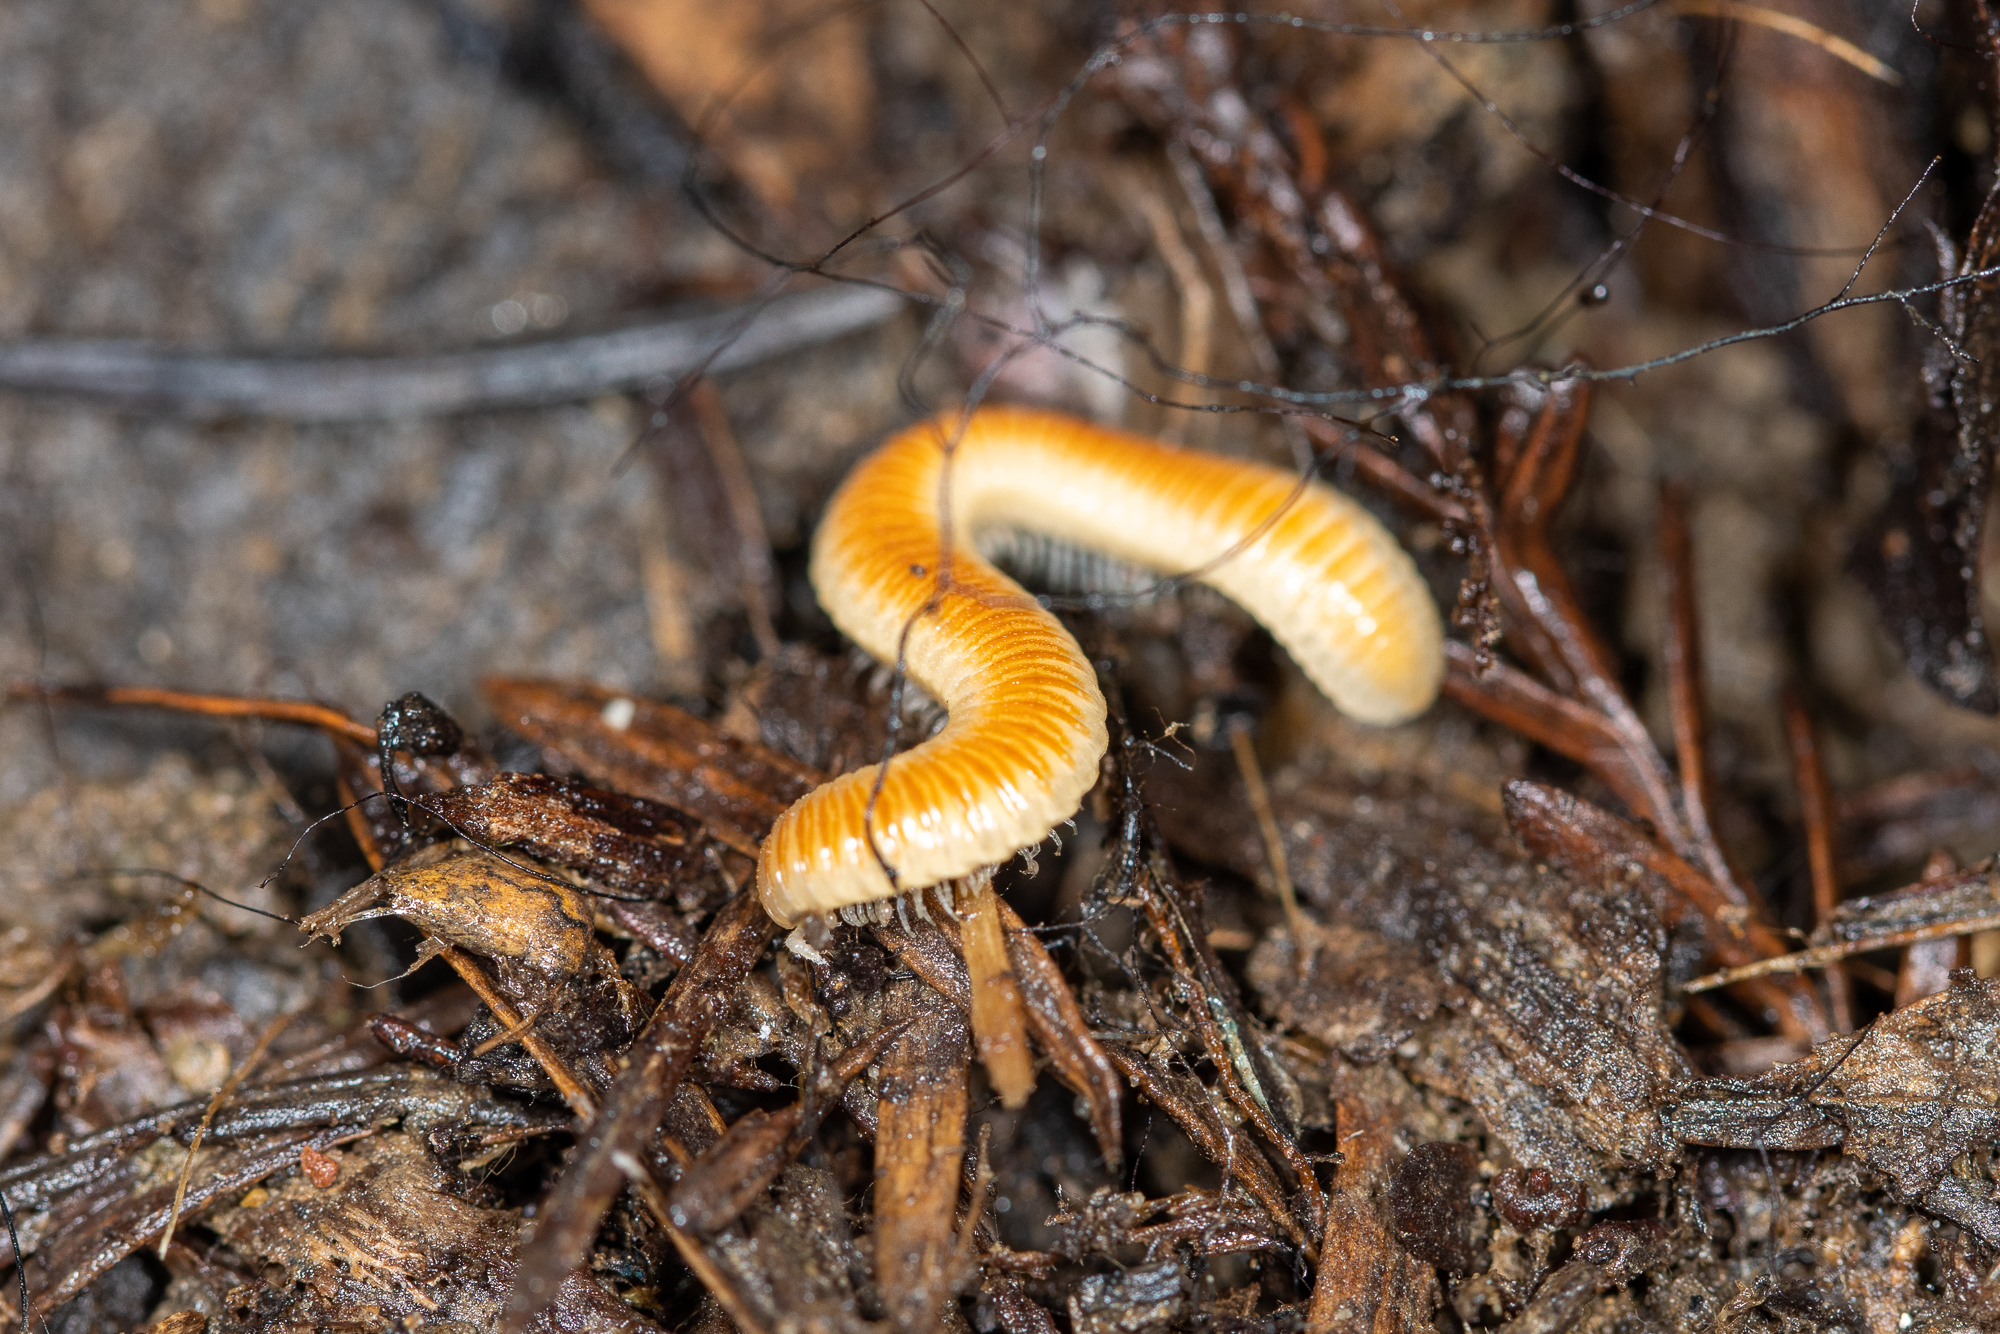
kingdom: Animalia
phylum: Arthropoda
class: Diplopoda
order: Polyzoniida
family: Polyzoniidae
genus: Buzonium
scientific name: Buzonium crassipes
